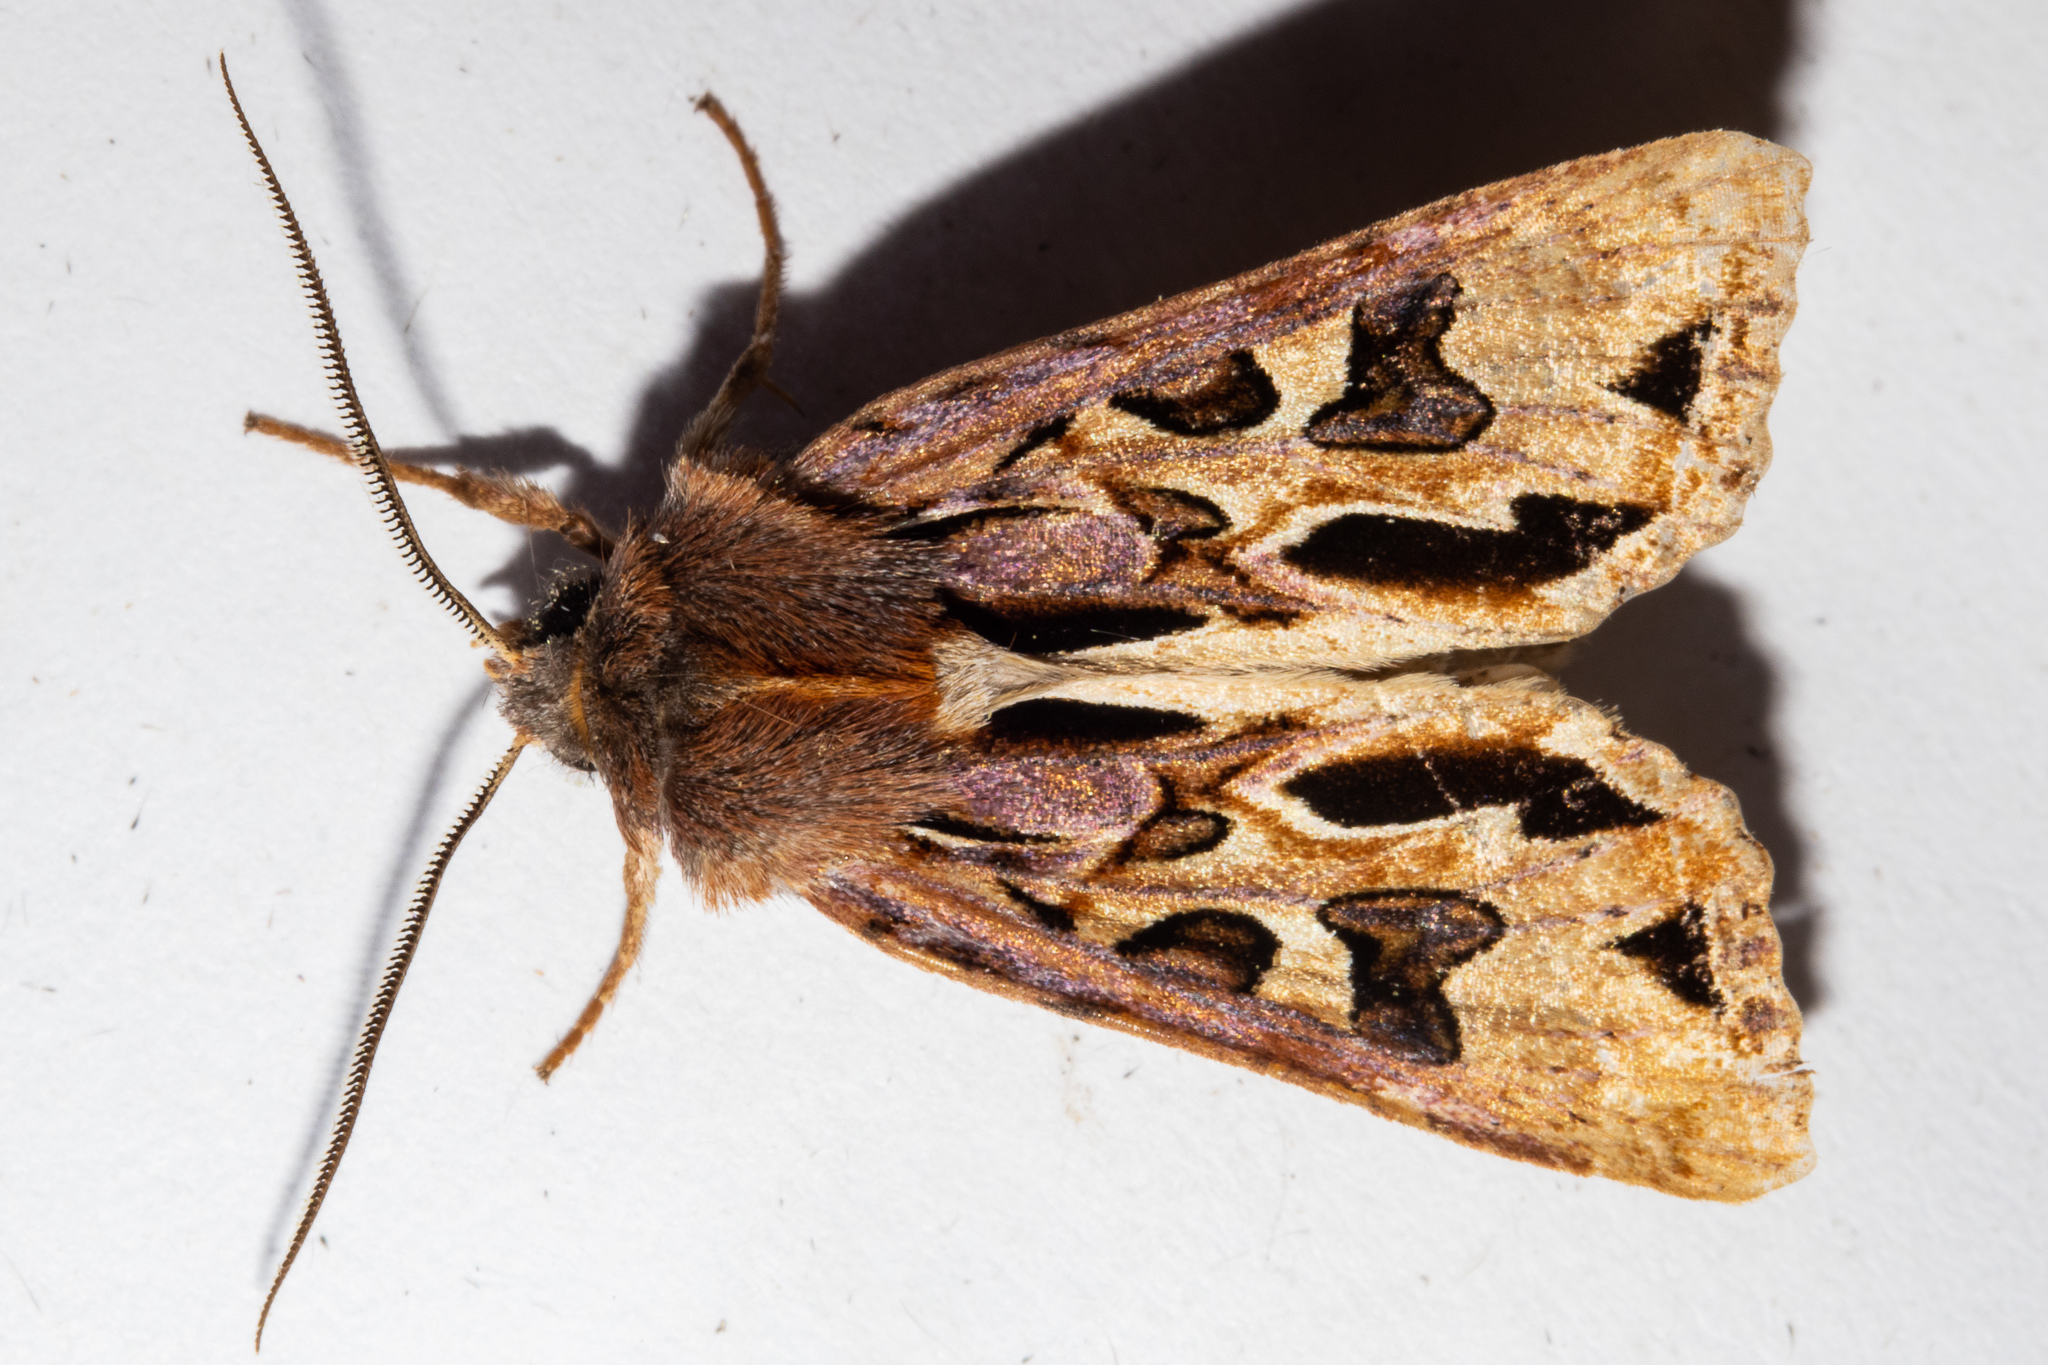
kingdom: Animalia
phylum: Arthropoda
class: Insecta
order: Lepidoptera
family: Noctuidae
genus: Ichneutica
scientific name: Ichneutica
